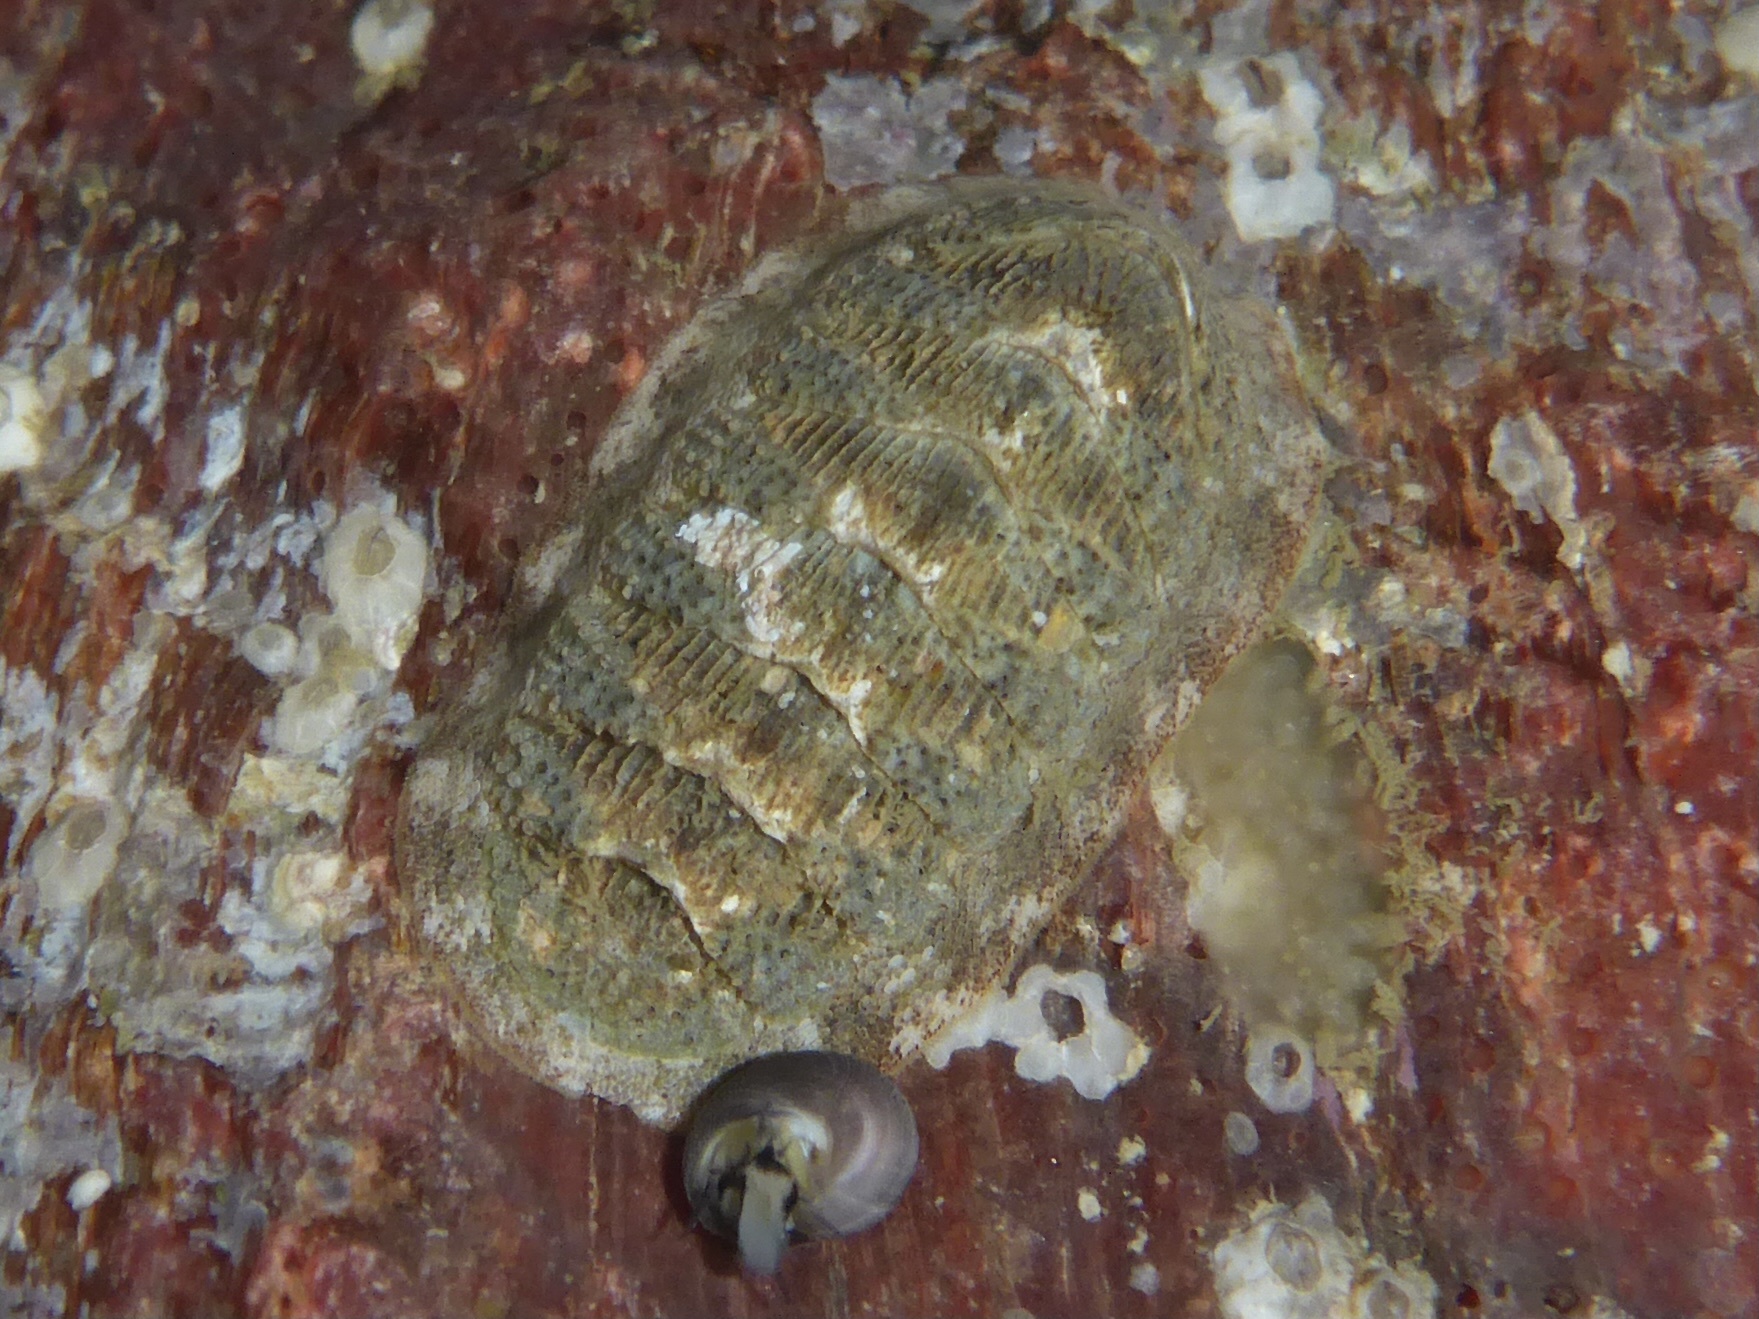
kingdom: Animalia
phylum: Mollusca
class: Polyplacophora
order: Chitonida
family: Ischnochitonidae
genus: Lepidozona
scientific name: Lepidozona cooperi
